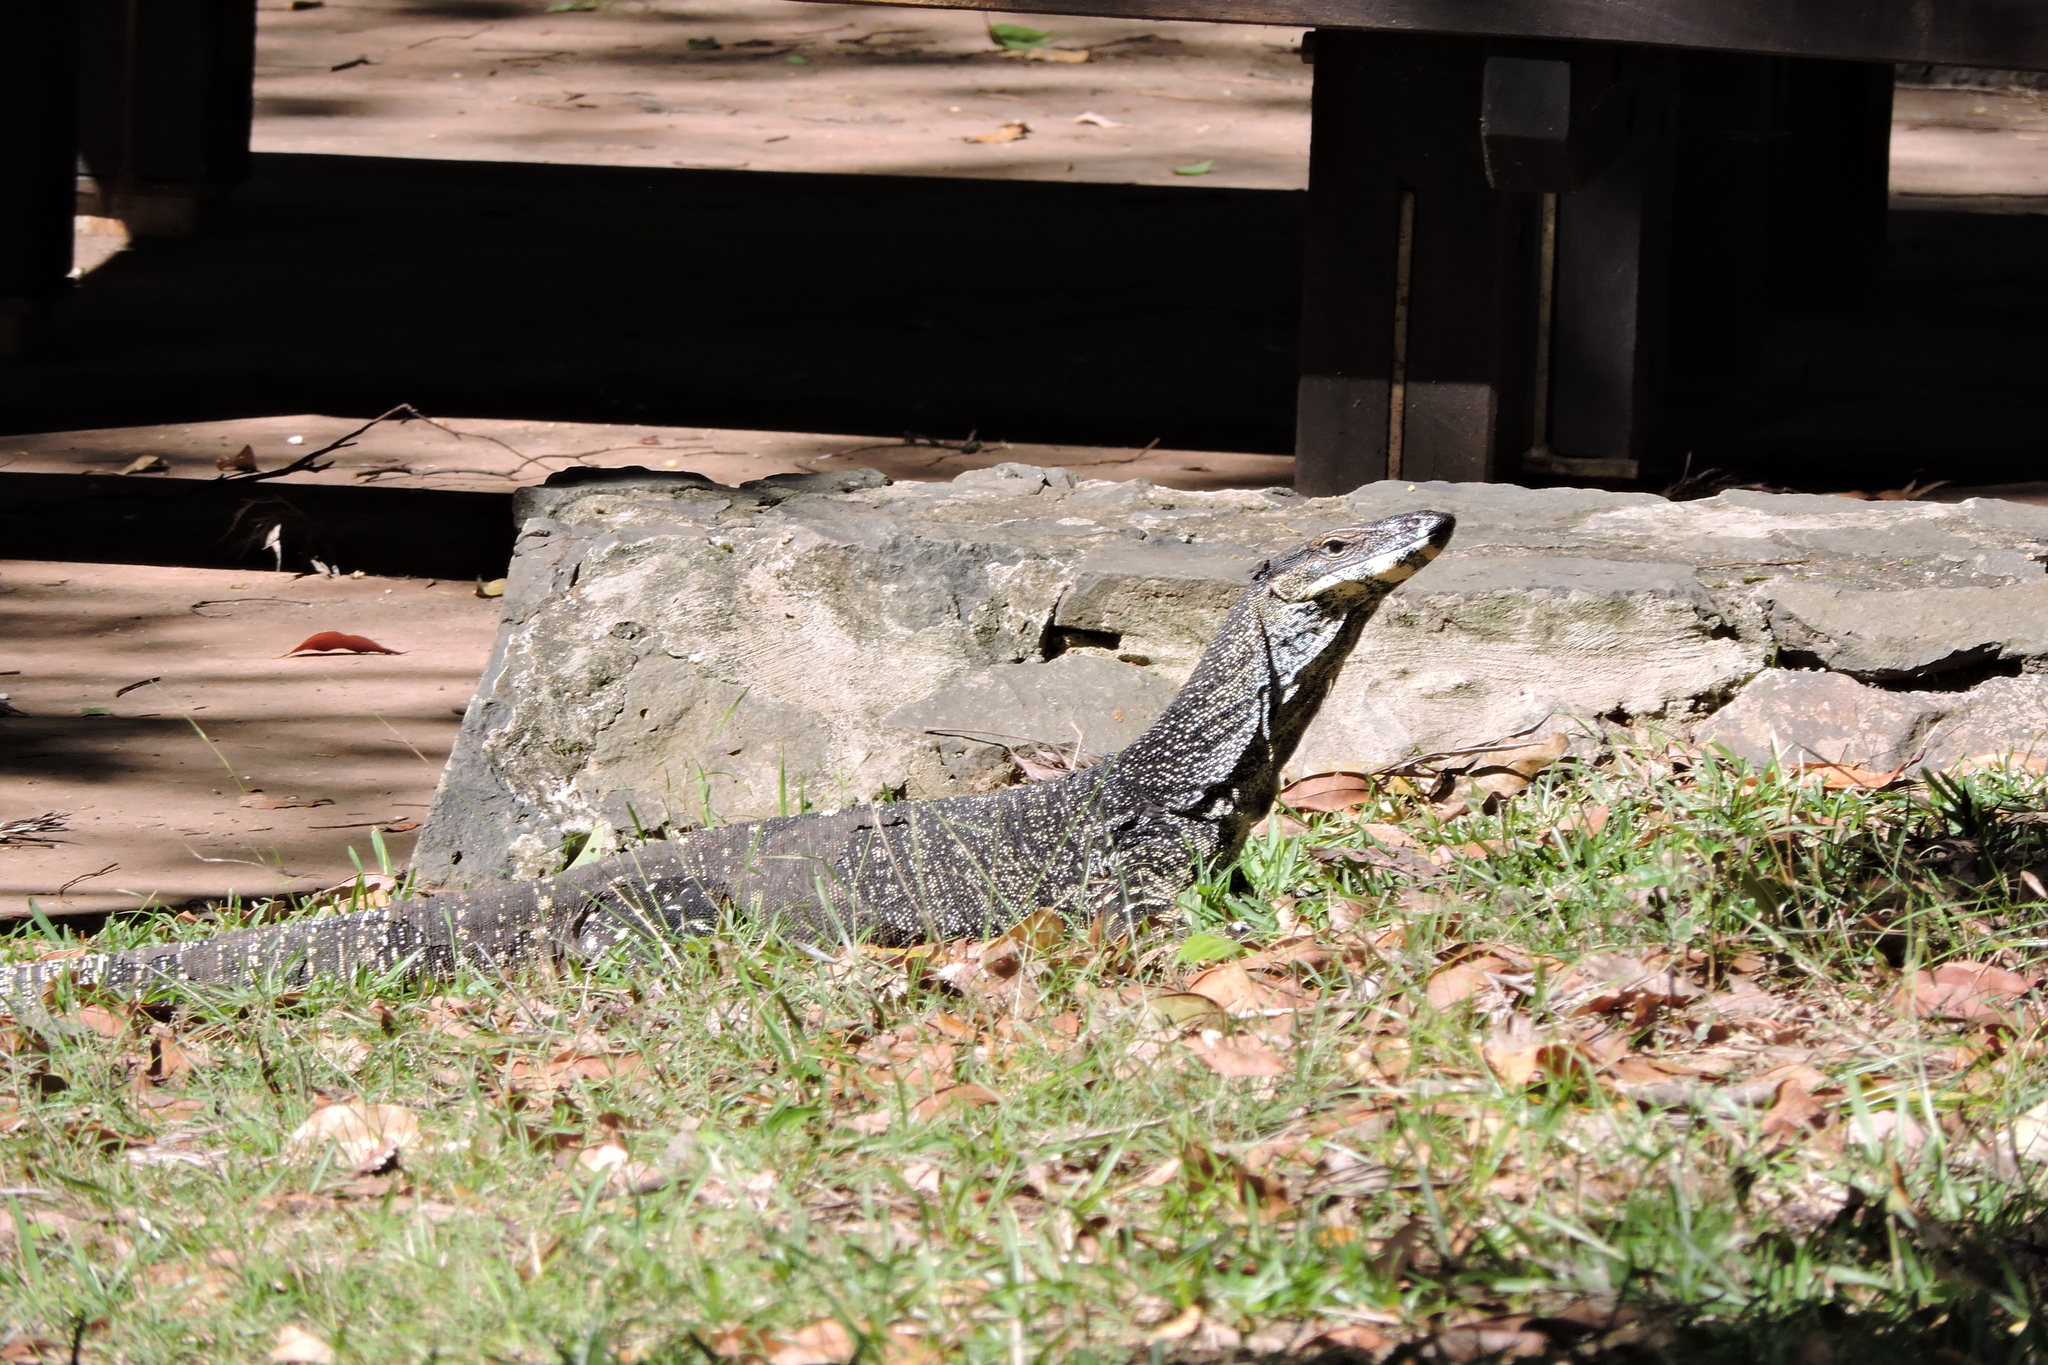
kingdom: Animalia
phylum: Chordata
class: Squamata
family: Varanidae
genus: Varanus
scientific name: Varanus varius
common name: Lace monitor
